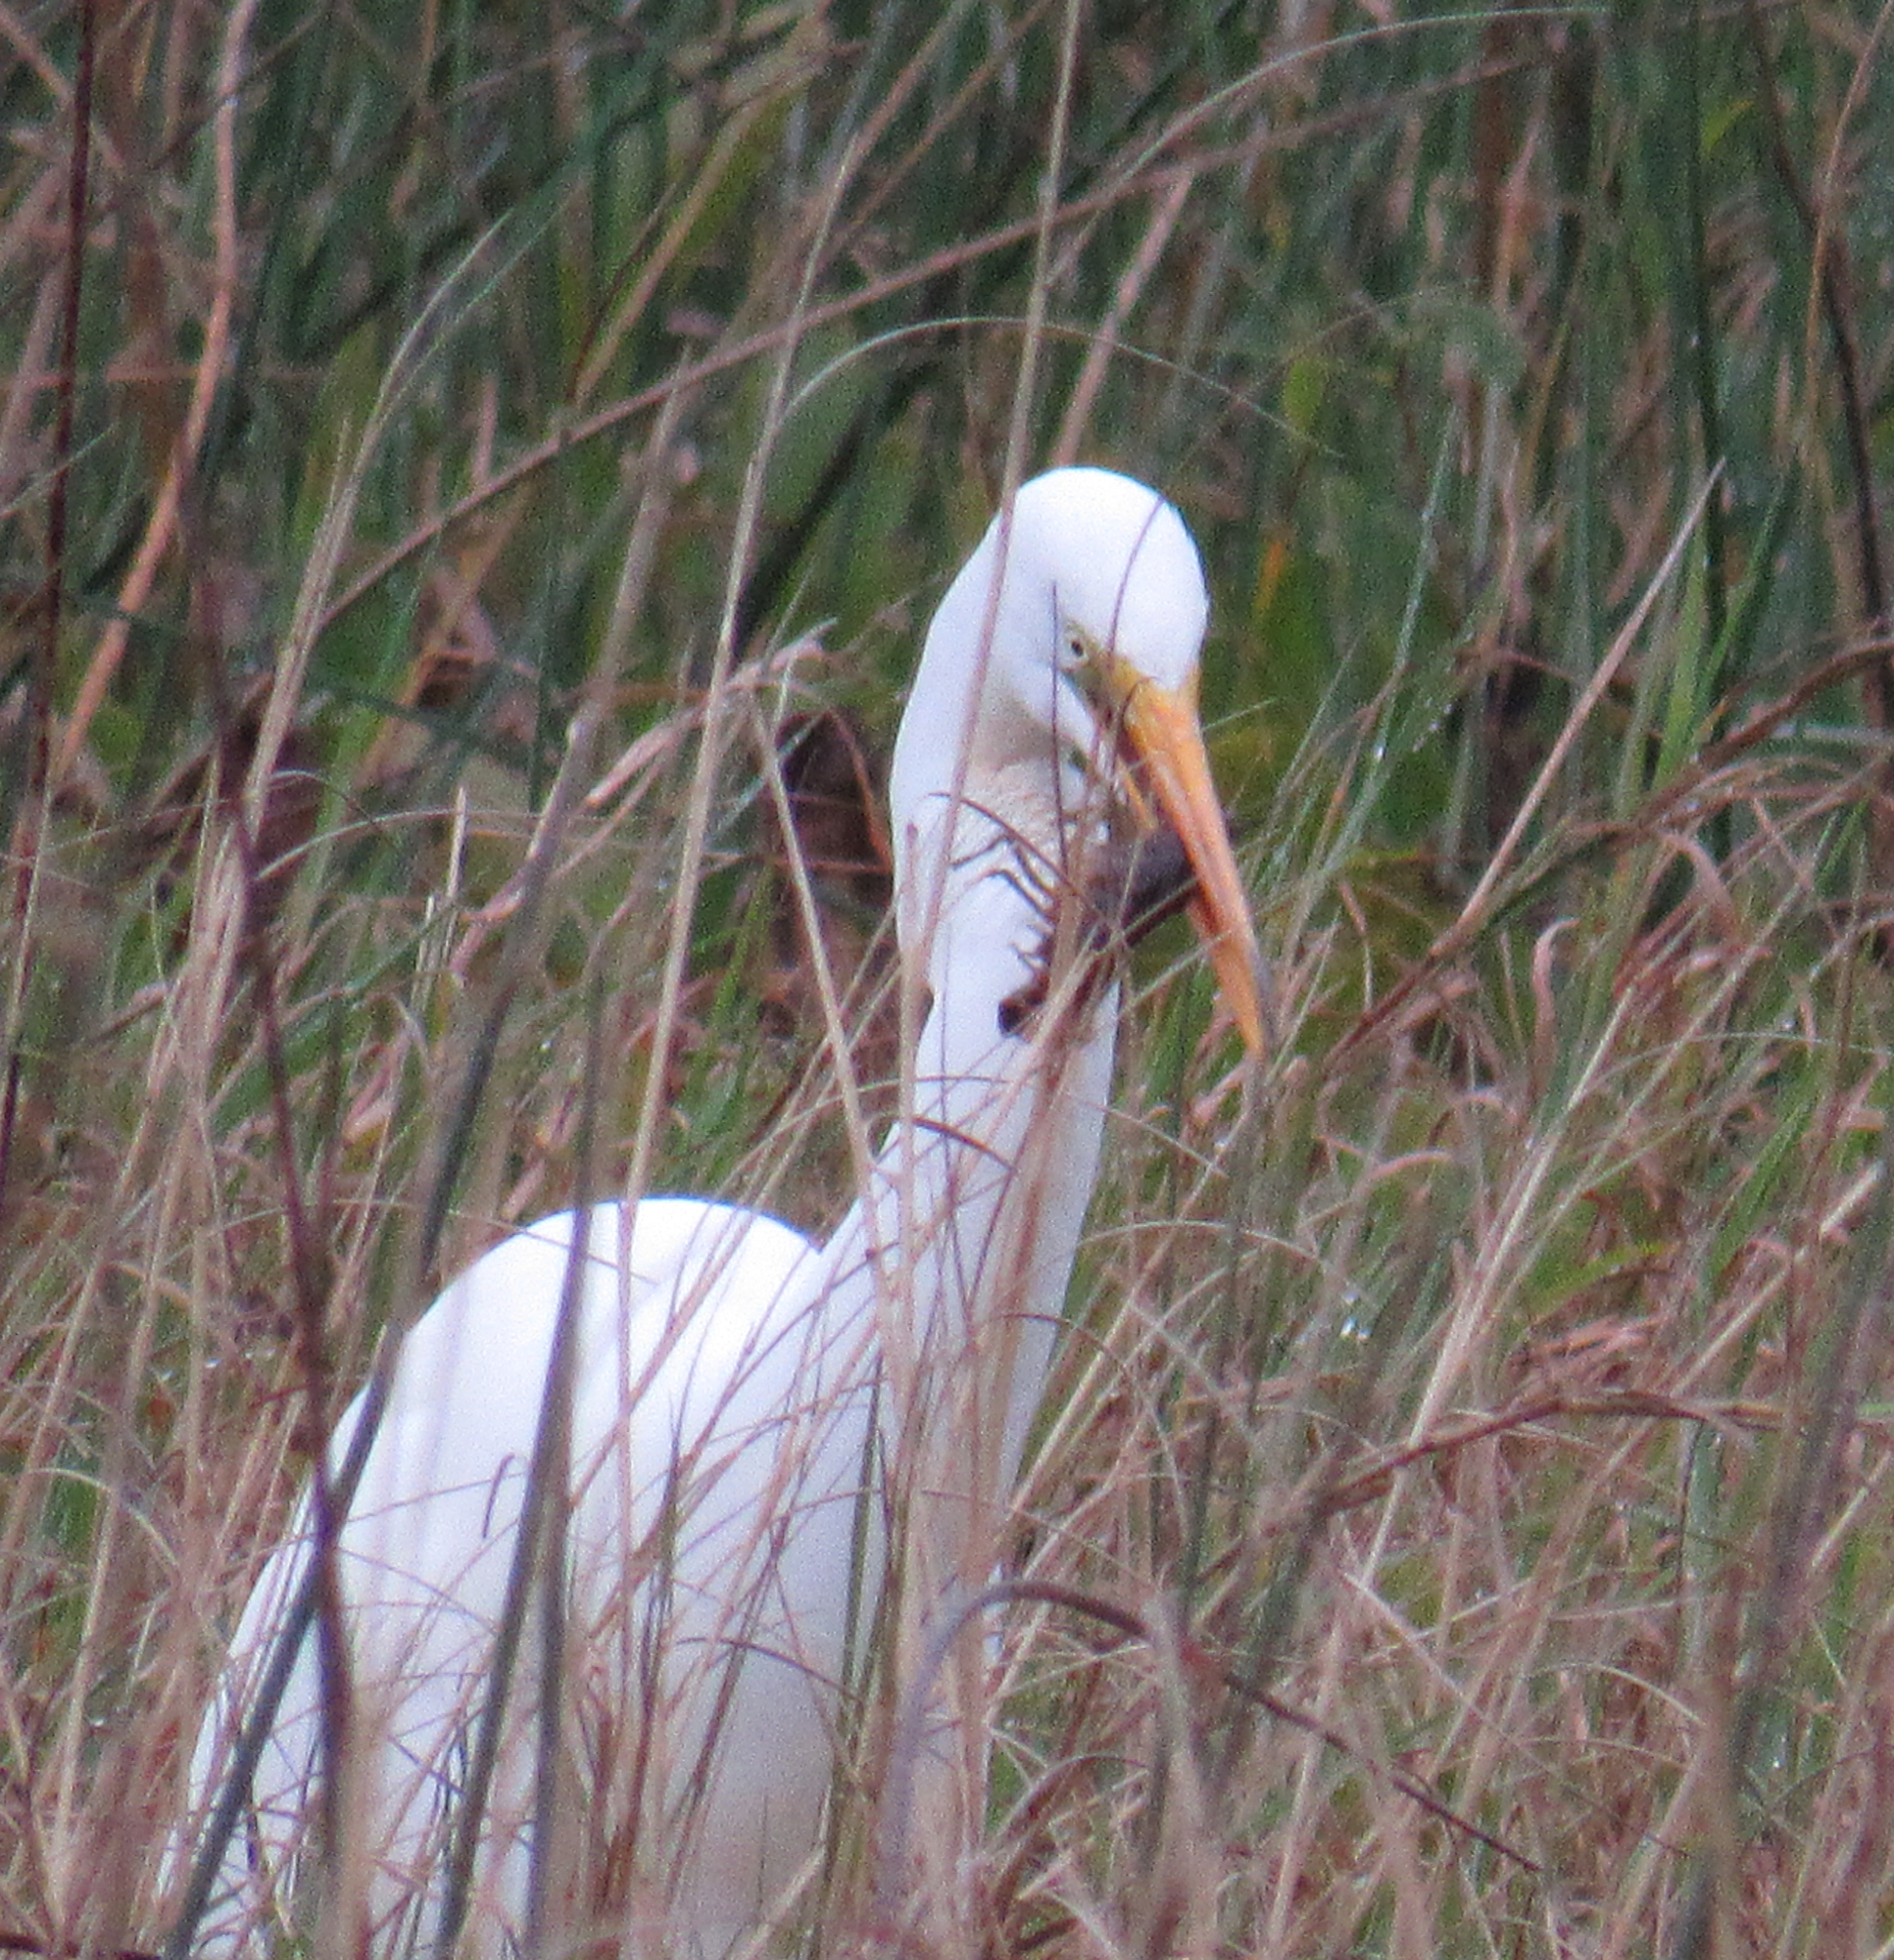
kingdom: Animalia
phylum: Chordata
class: Aves
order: Pelecaniformes
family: Ardeidae
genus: Ardea
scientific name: Ardea alba
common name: Great egret
